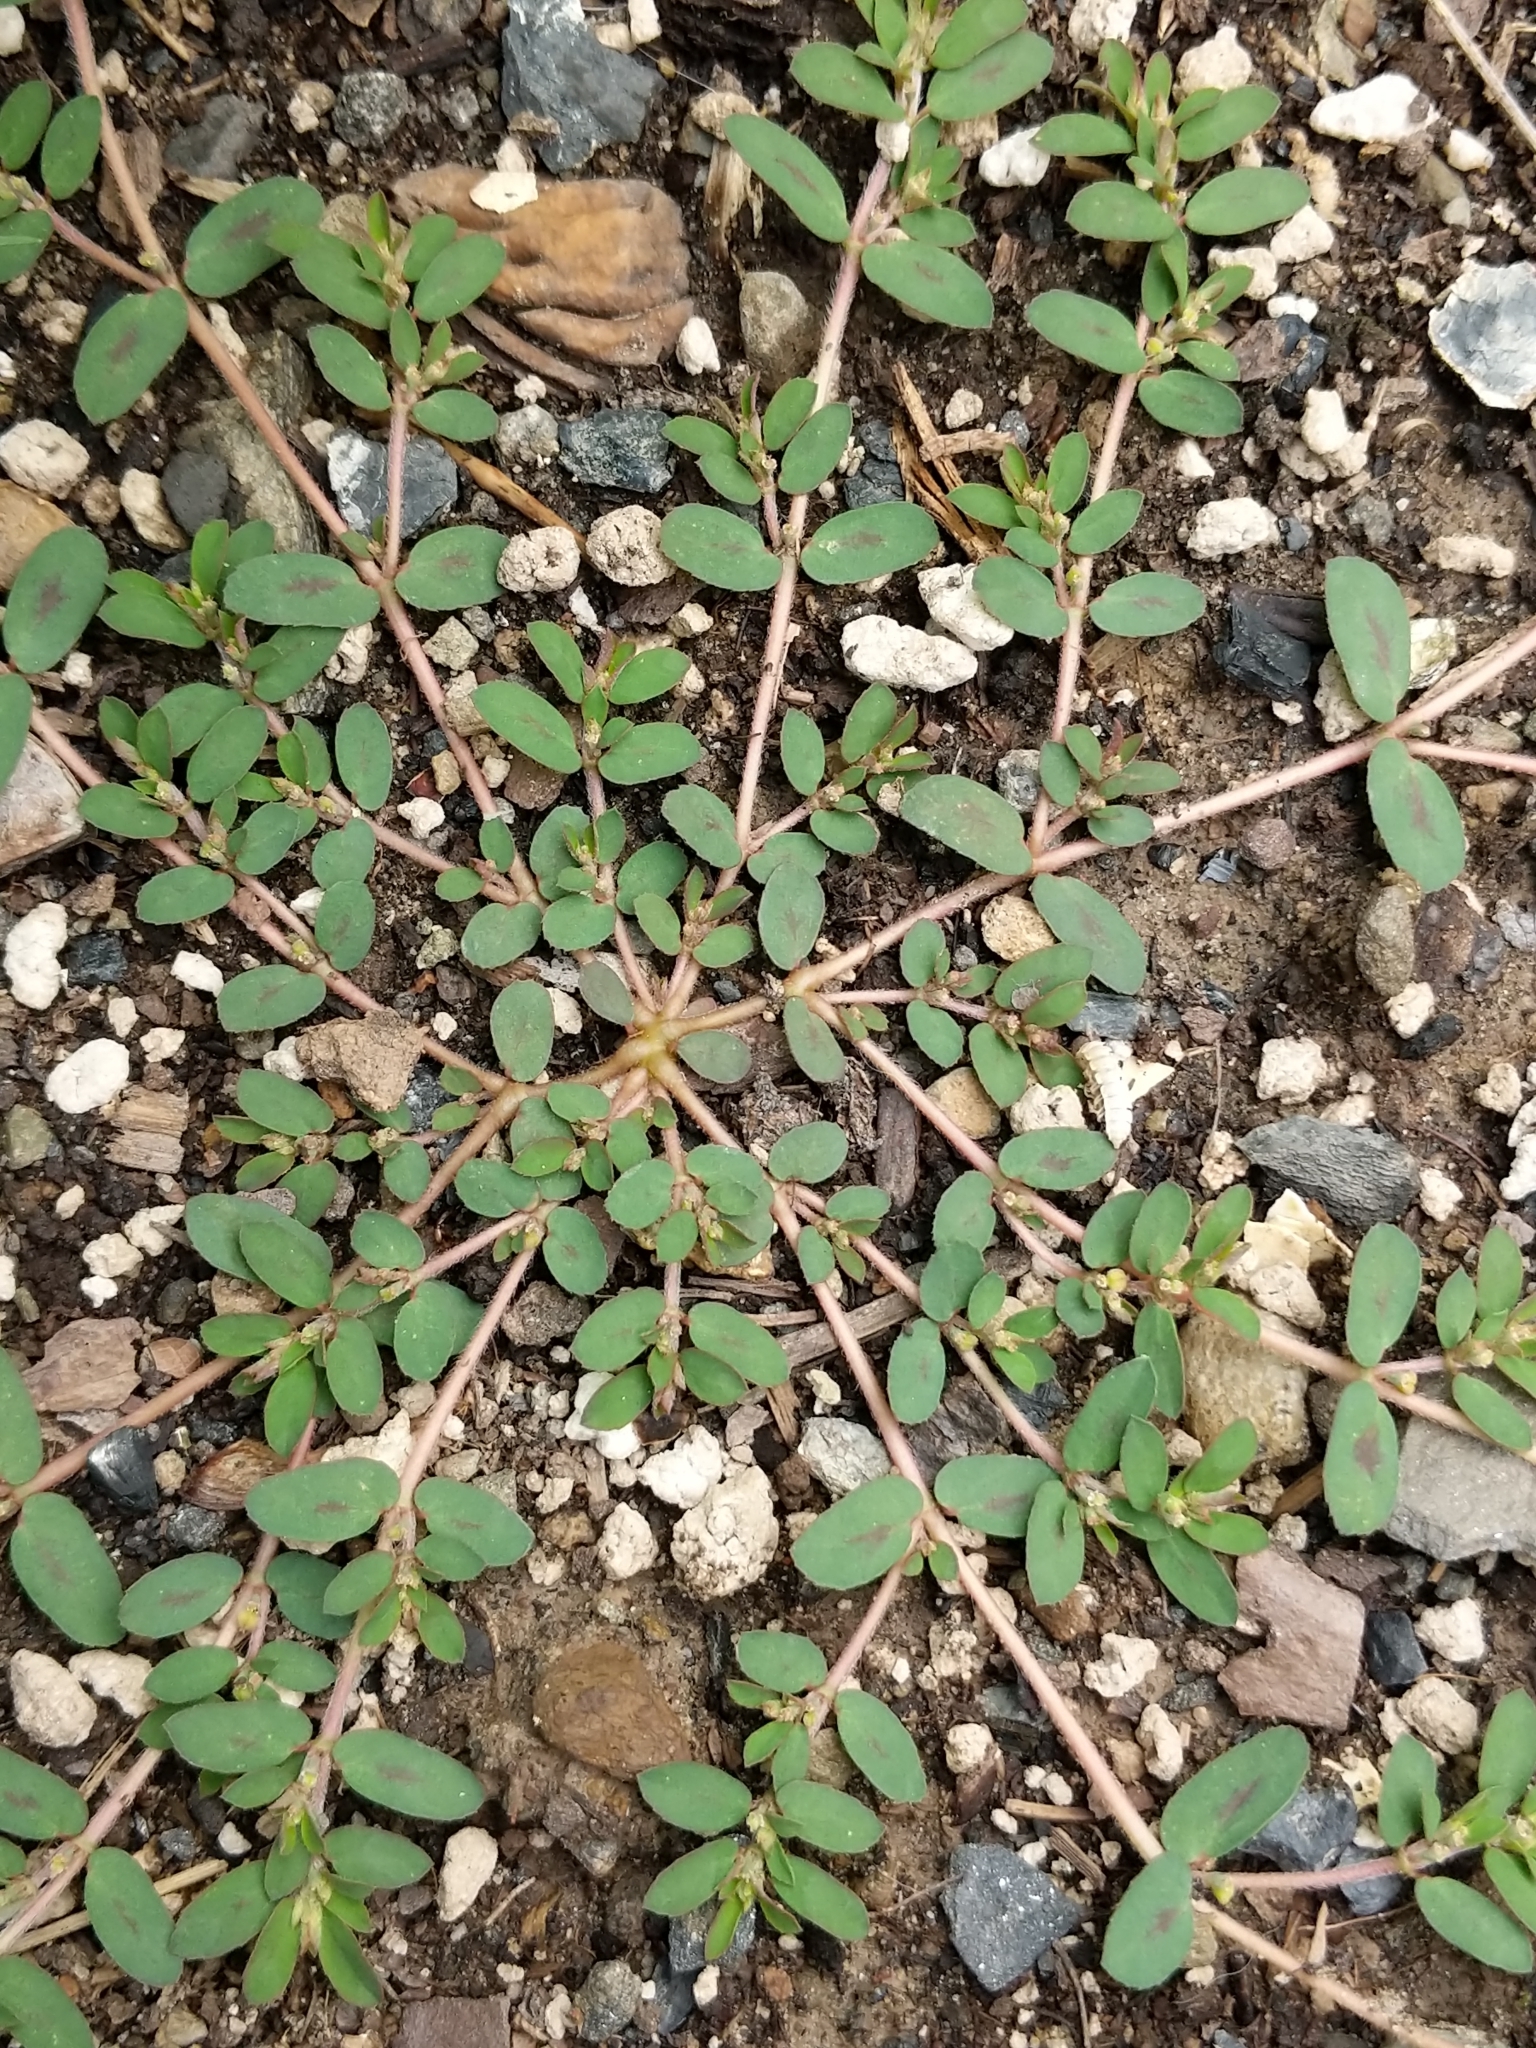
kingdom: Plantae
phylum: Tracheophyta
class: Magnoliopsida
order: Malpighiales
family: Euphorbiaceae
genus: Euphorbia
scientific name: Euphorbia maculata
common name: Spotted spurge
